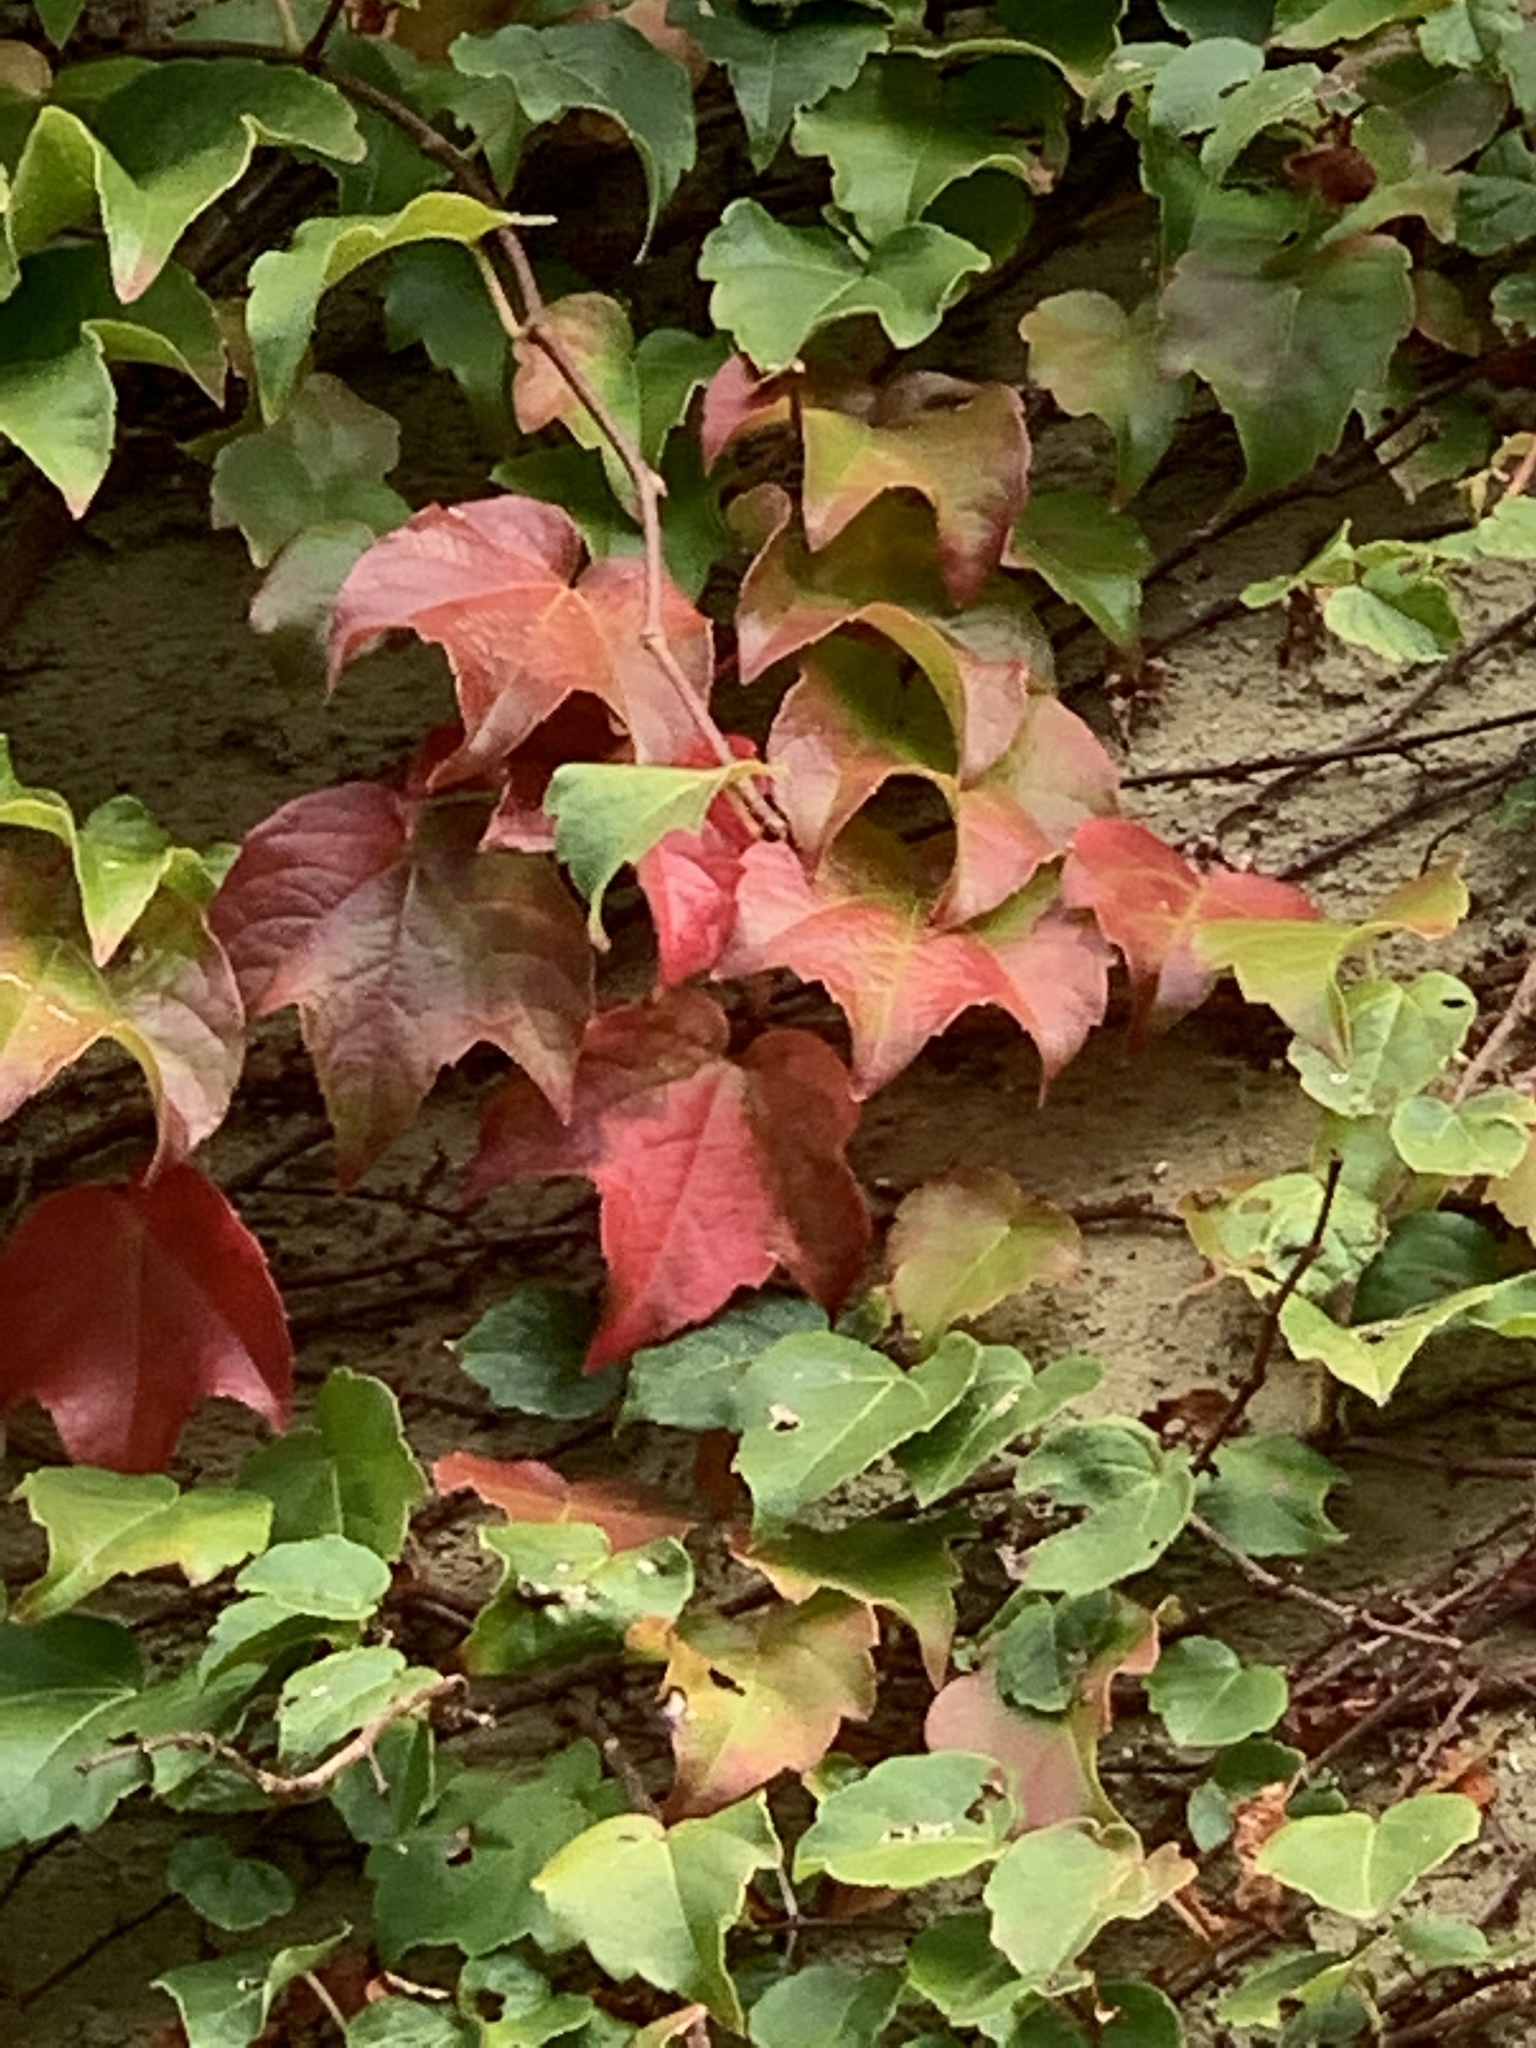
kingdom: Plantae
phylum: Tracheophyta
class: Magnoliopsida
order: Vitales
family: Vitaceae
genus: Parthenocissus
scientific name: Parthenocissus tricuspidata
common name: Boston ivy
